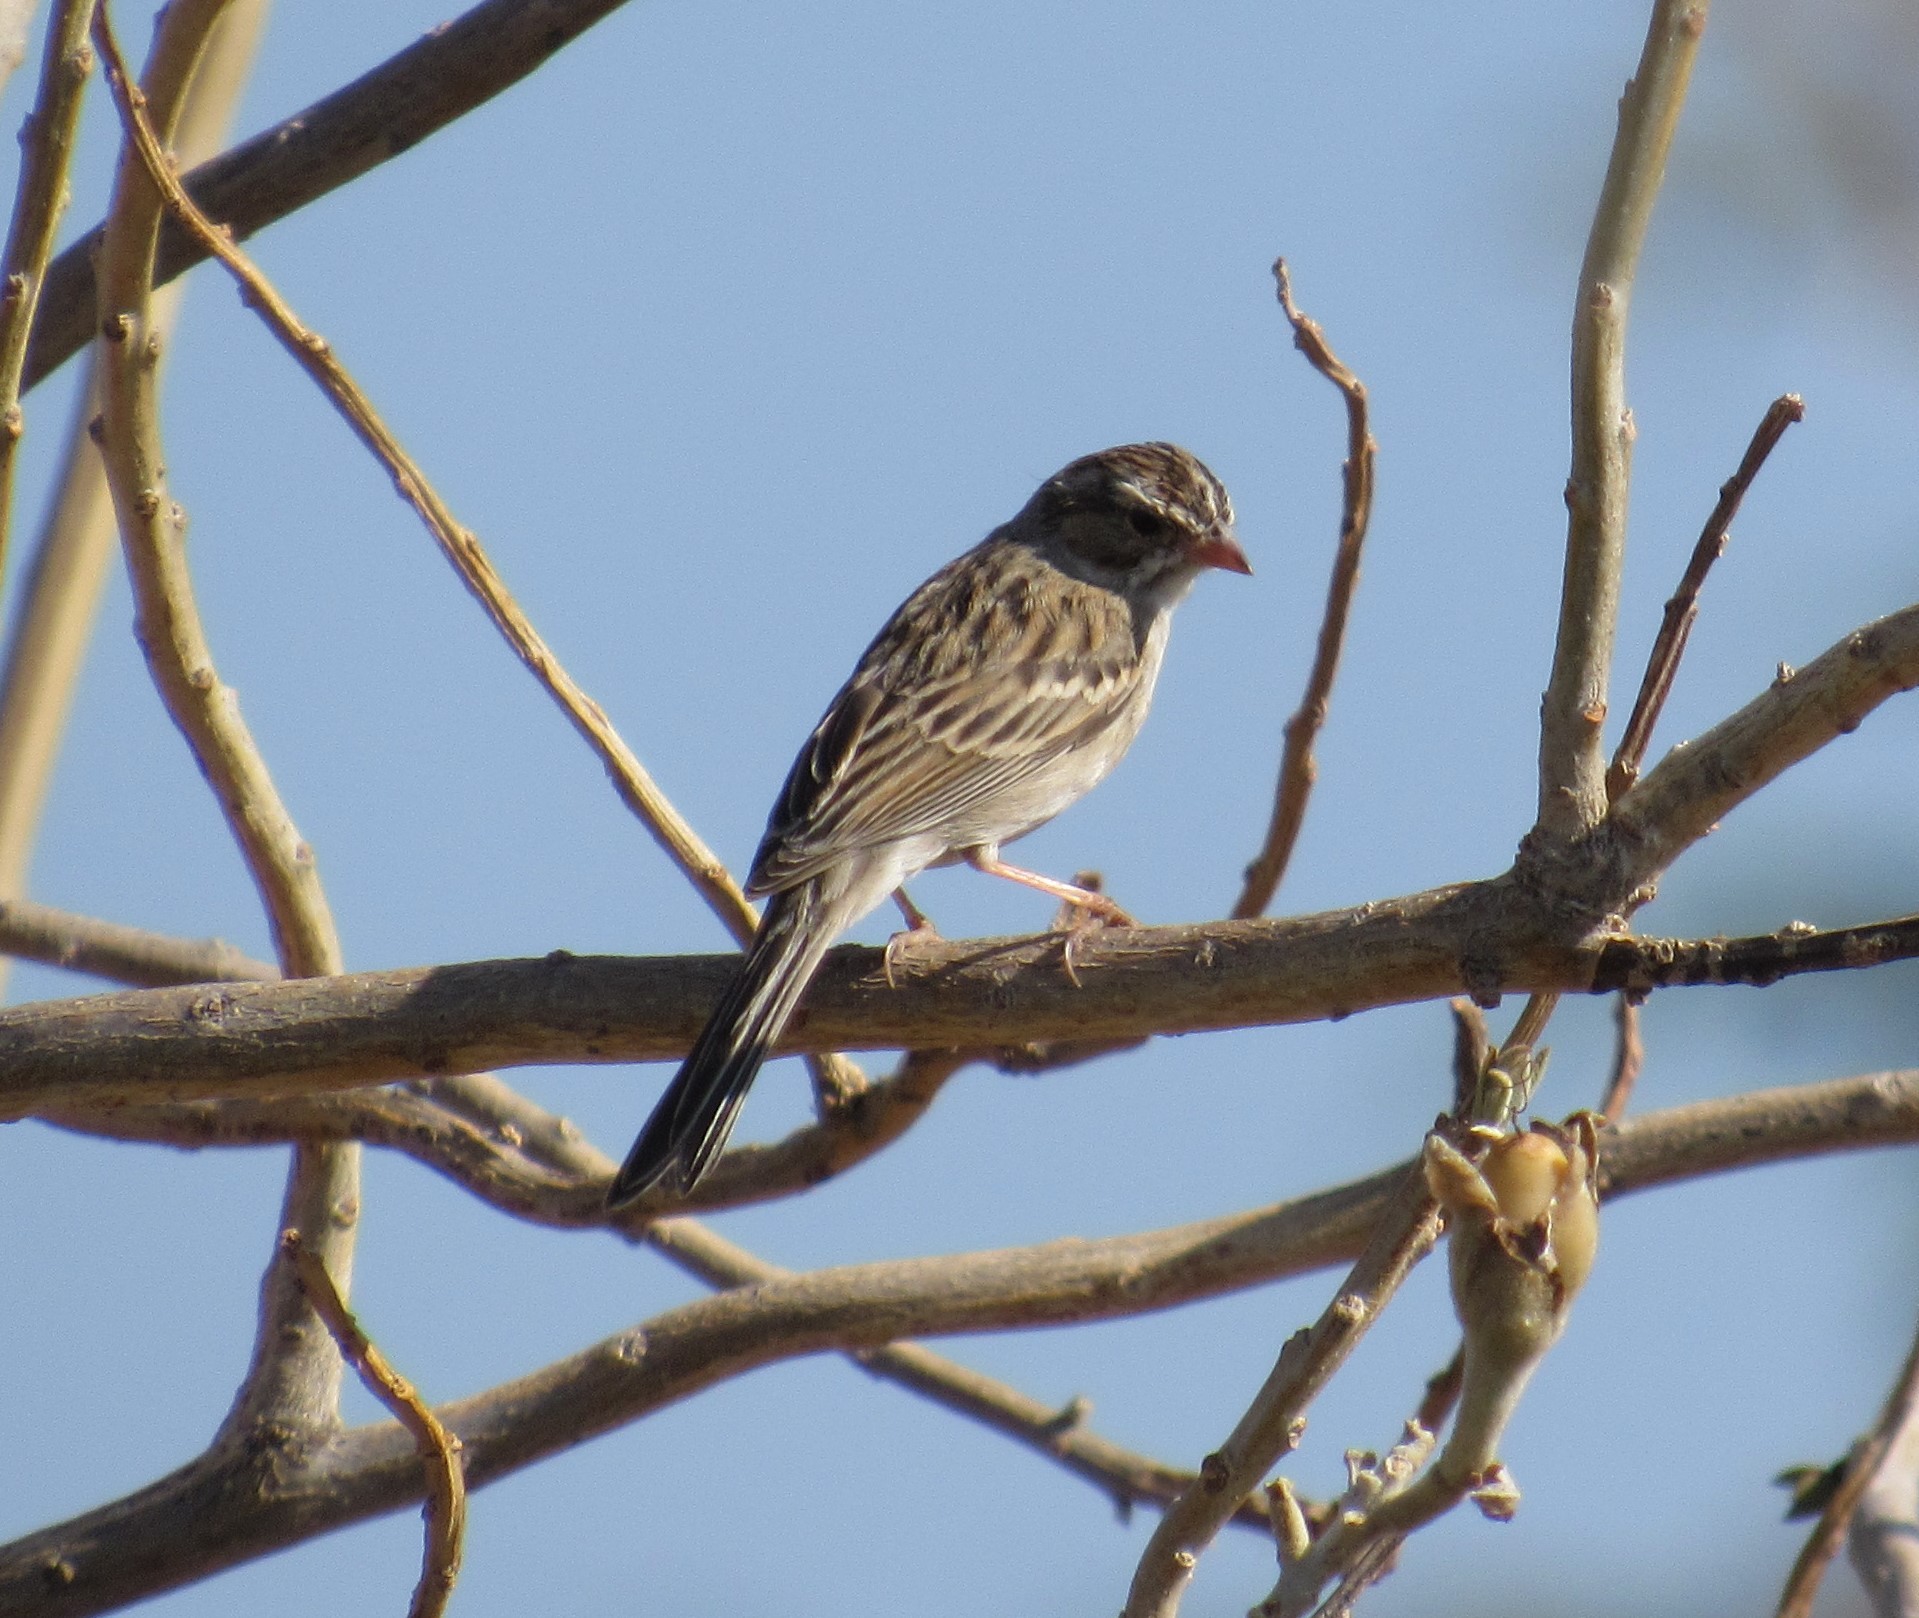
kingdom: Animalia
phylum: Chordata
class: Aves
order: Passeriformes
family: Passerellidae
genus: Spizella
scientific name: Spizella pallida
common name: Clay-colored sparrow
